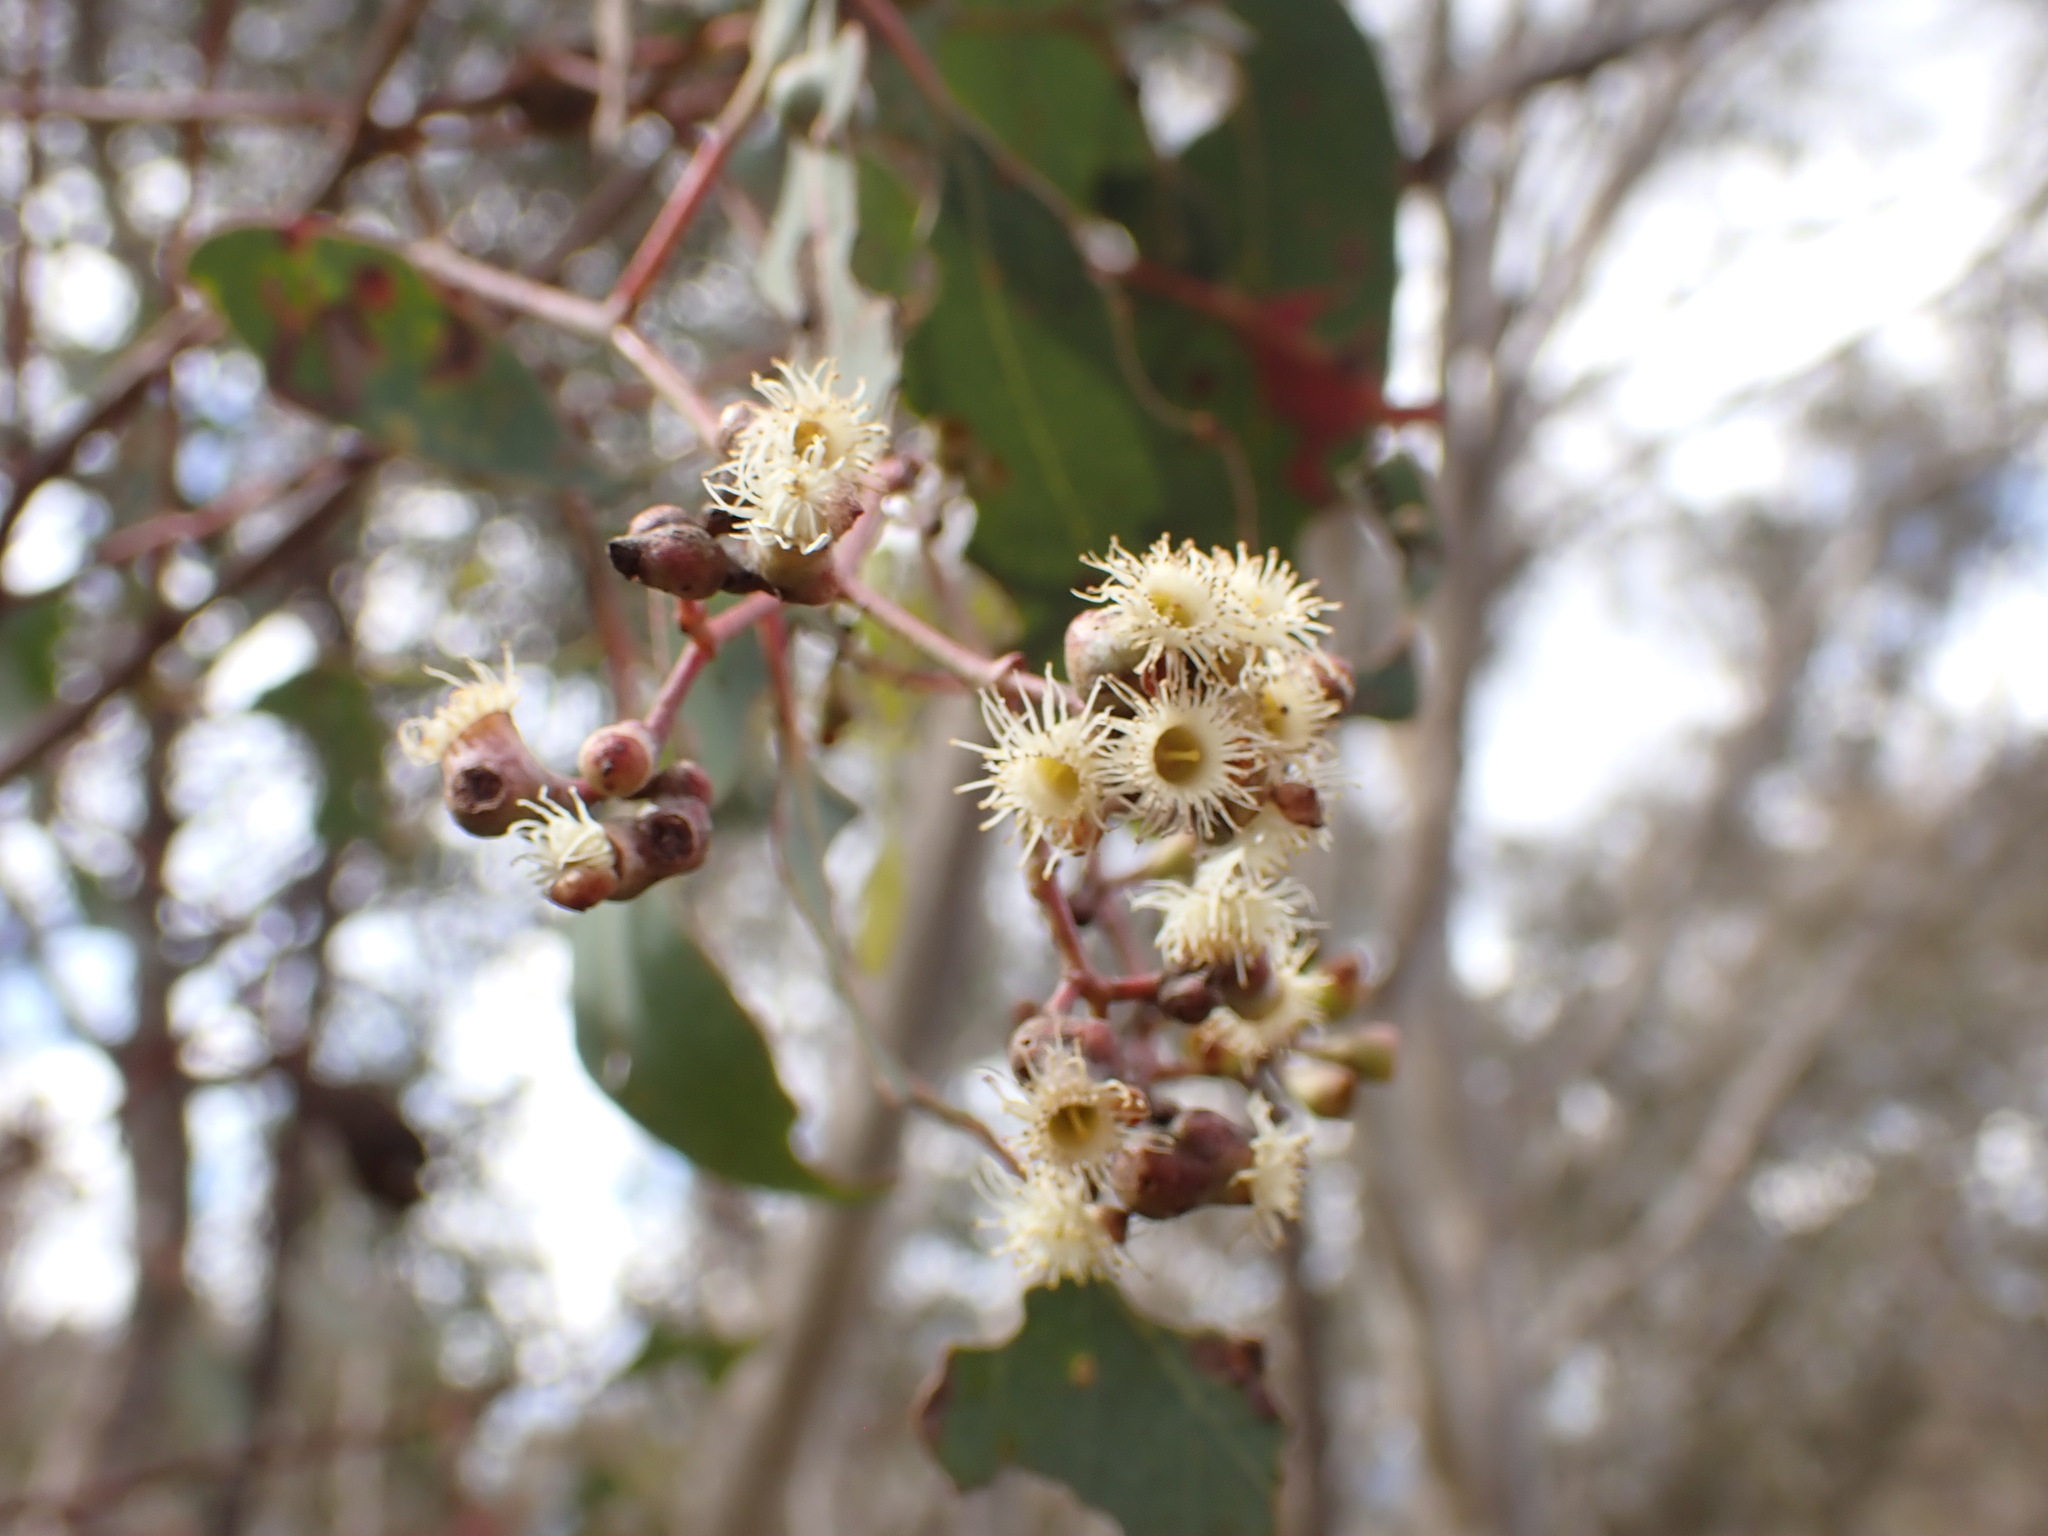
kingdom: Plantae
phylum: Tracheophyta
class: Magnoliopsida
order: Myrtales
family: Myrtaceae
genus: Eucalyptus
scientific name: Eucalyptus polyanthemos
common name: Red-box
